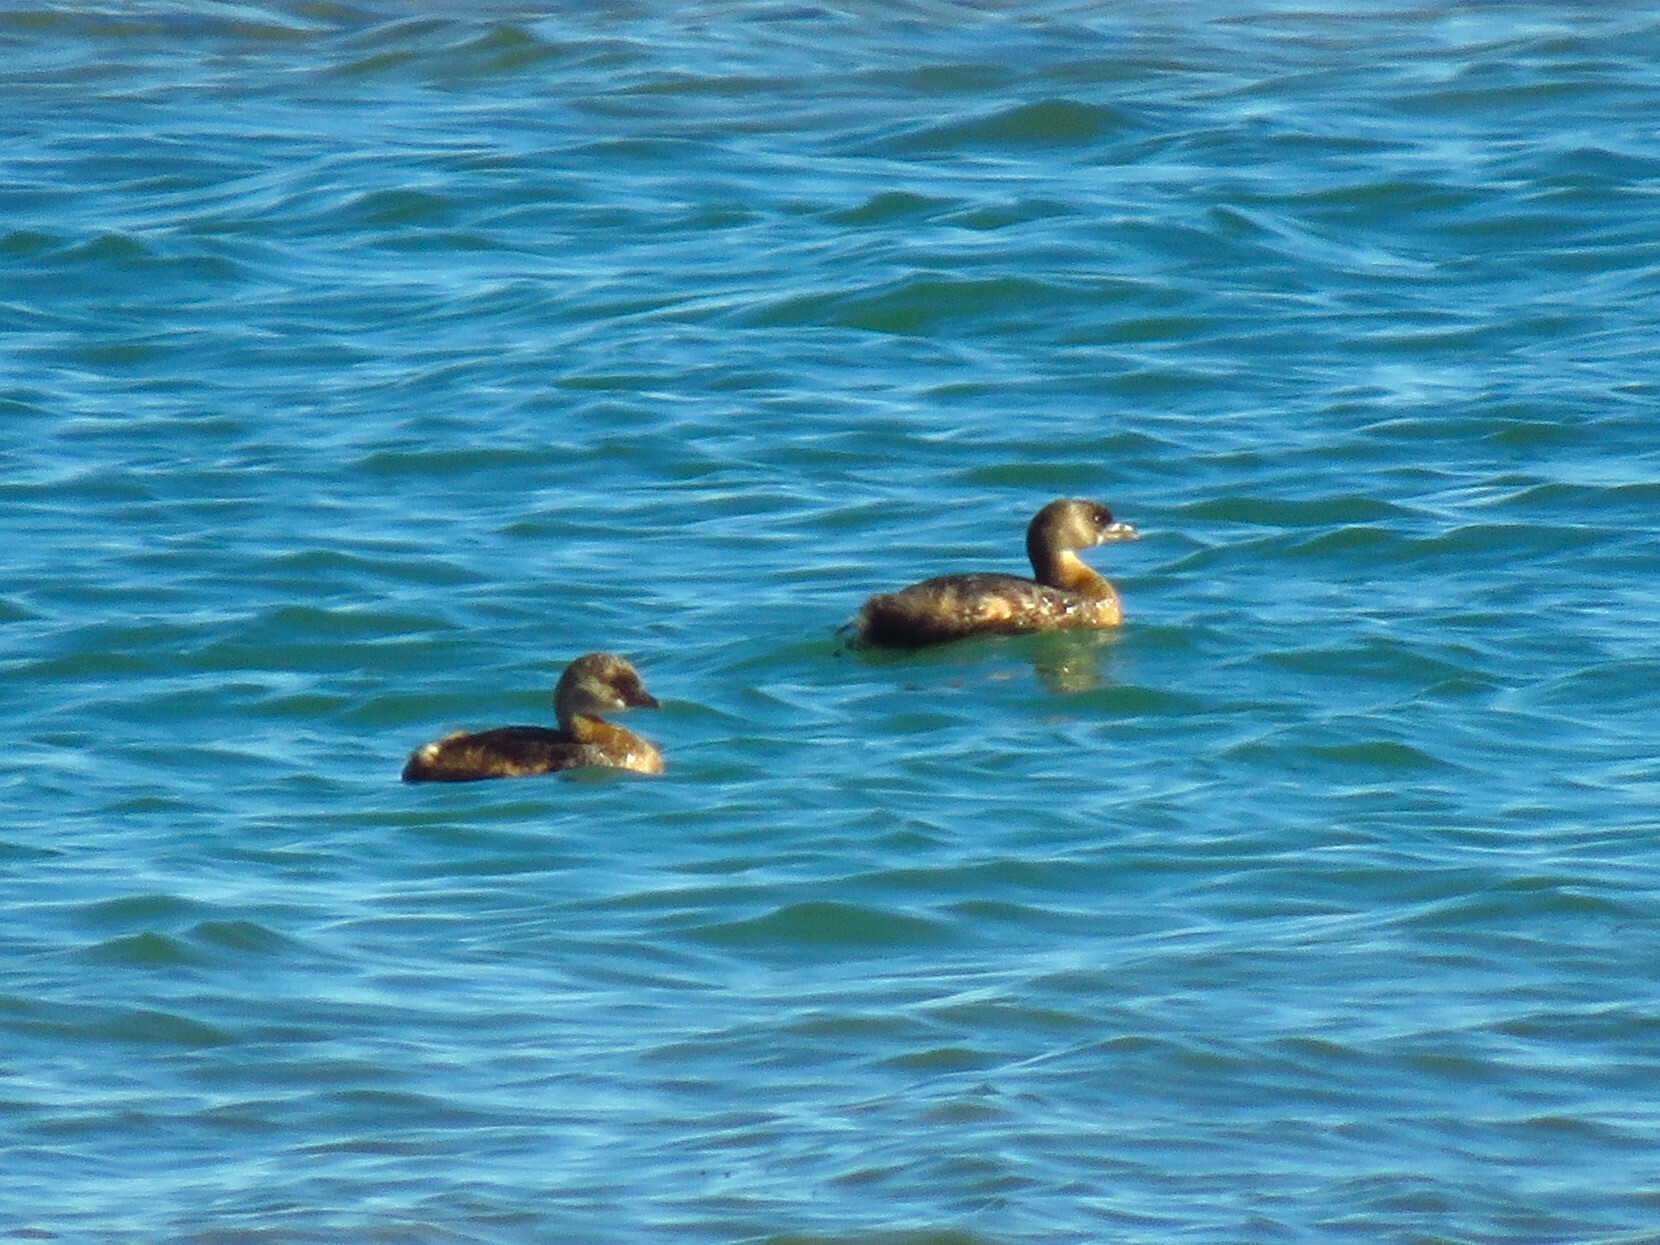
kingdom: Animalia
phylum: Chordata
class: Aves
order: Podicipediformes
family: Podicipedidae
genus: Podilymbus
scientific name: Podilymbus podiceps
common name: Pied-billed grebe
